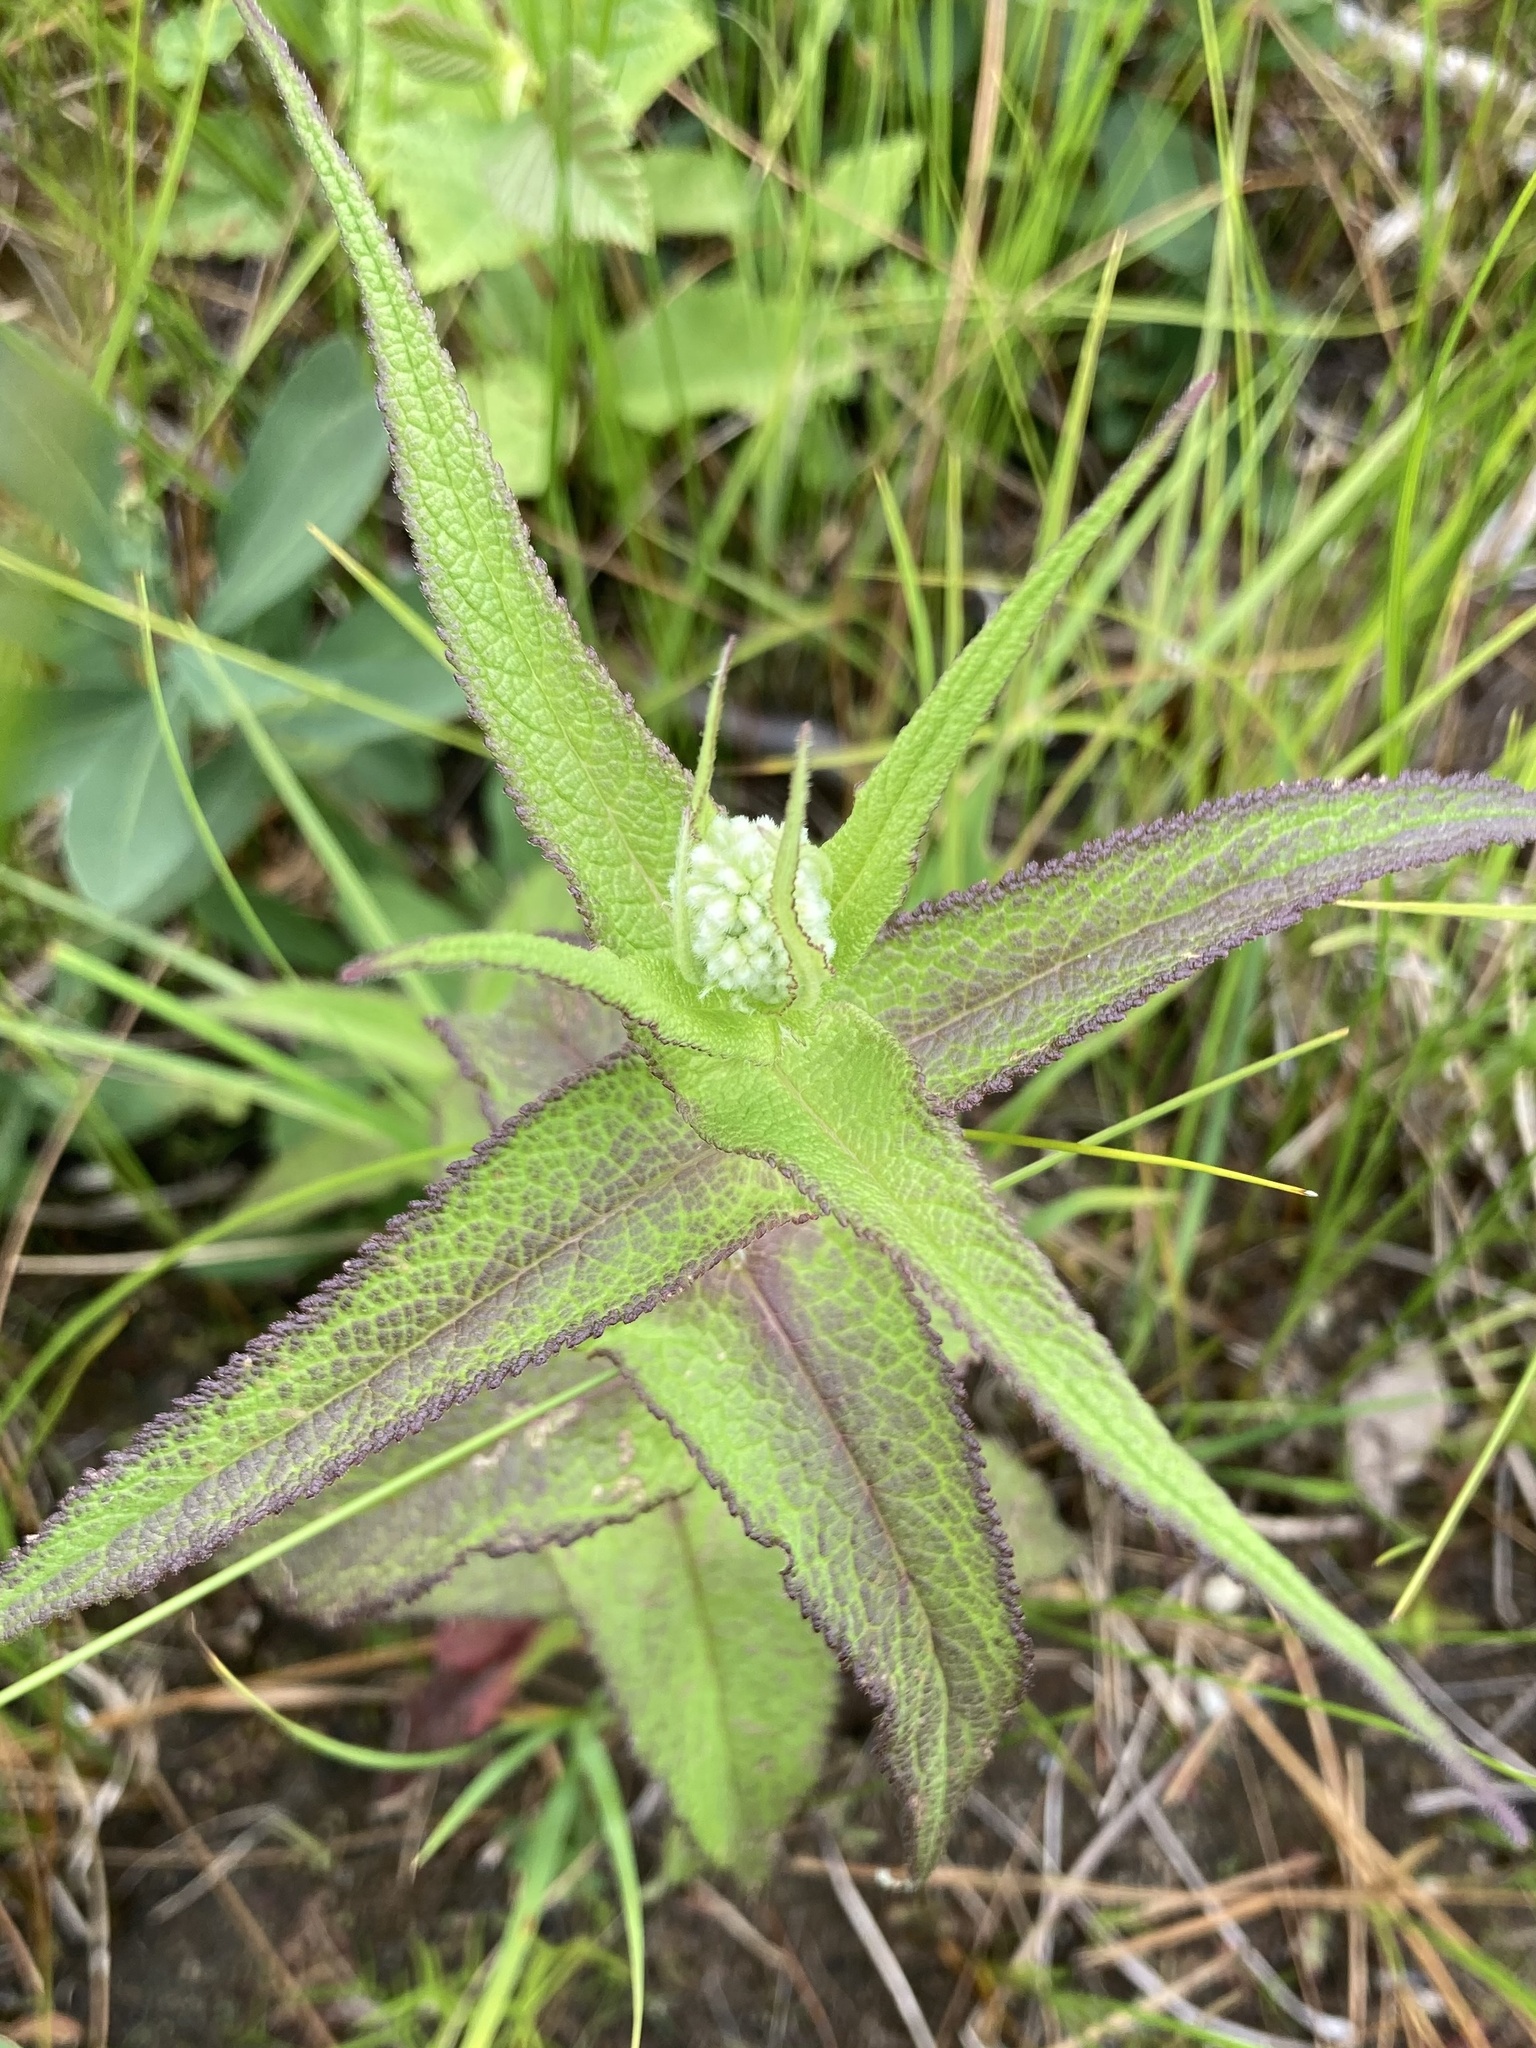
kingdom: Plantae
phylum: Tracheophyta
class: Magnoliopsida
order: Asterales
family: Asteraceae
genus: Eupatorium
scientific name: Eupatorium perfoliatum
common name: Boneset
